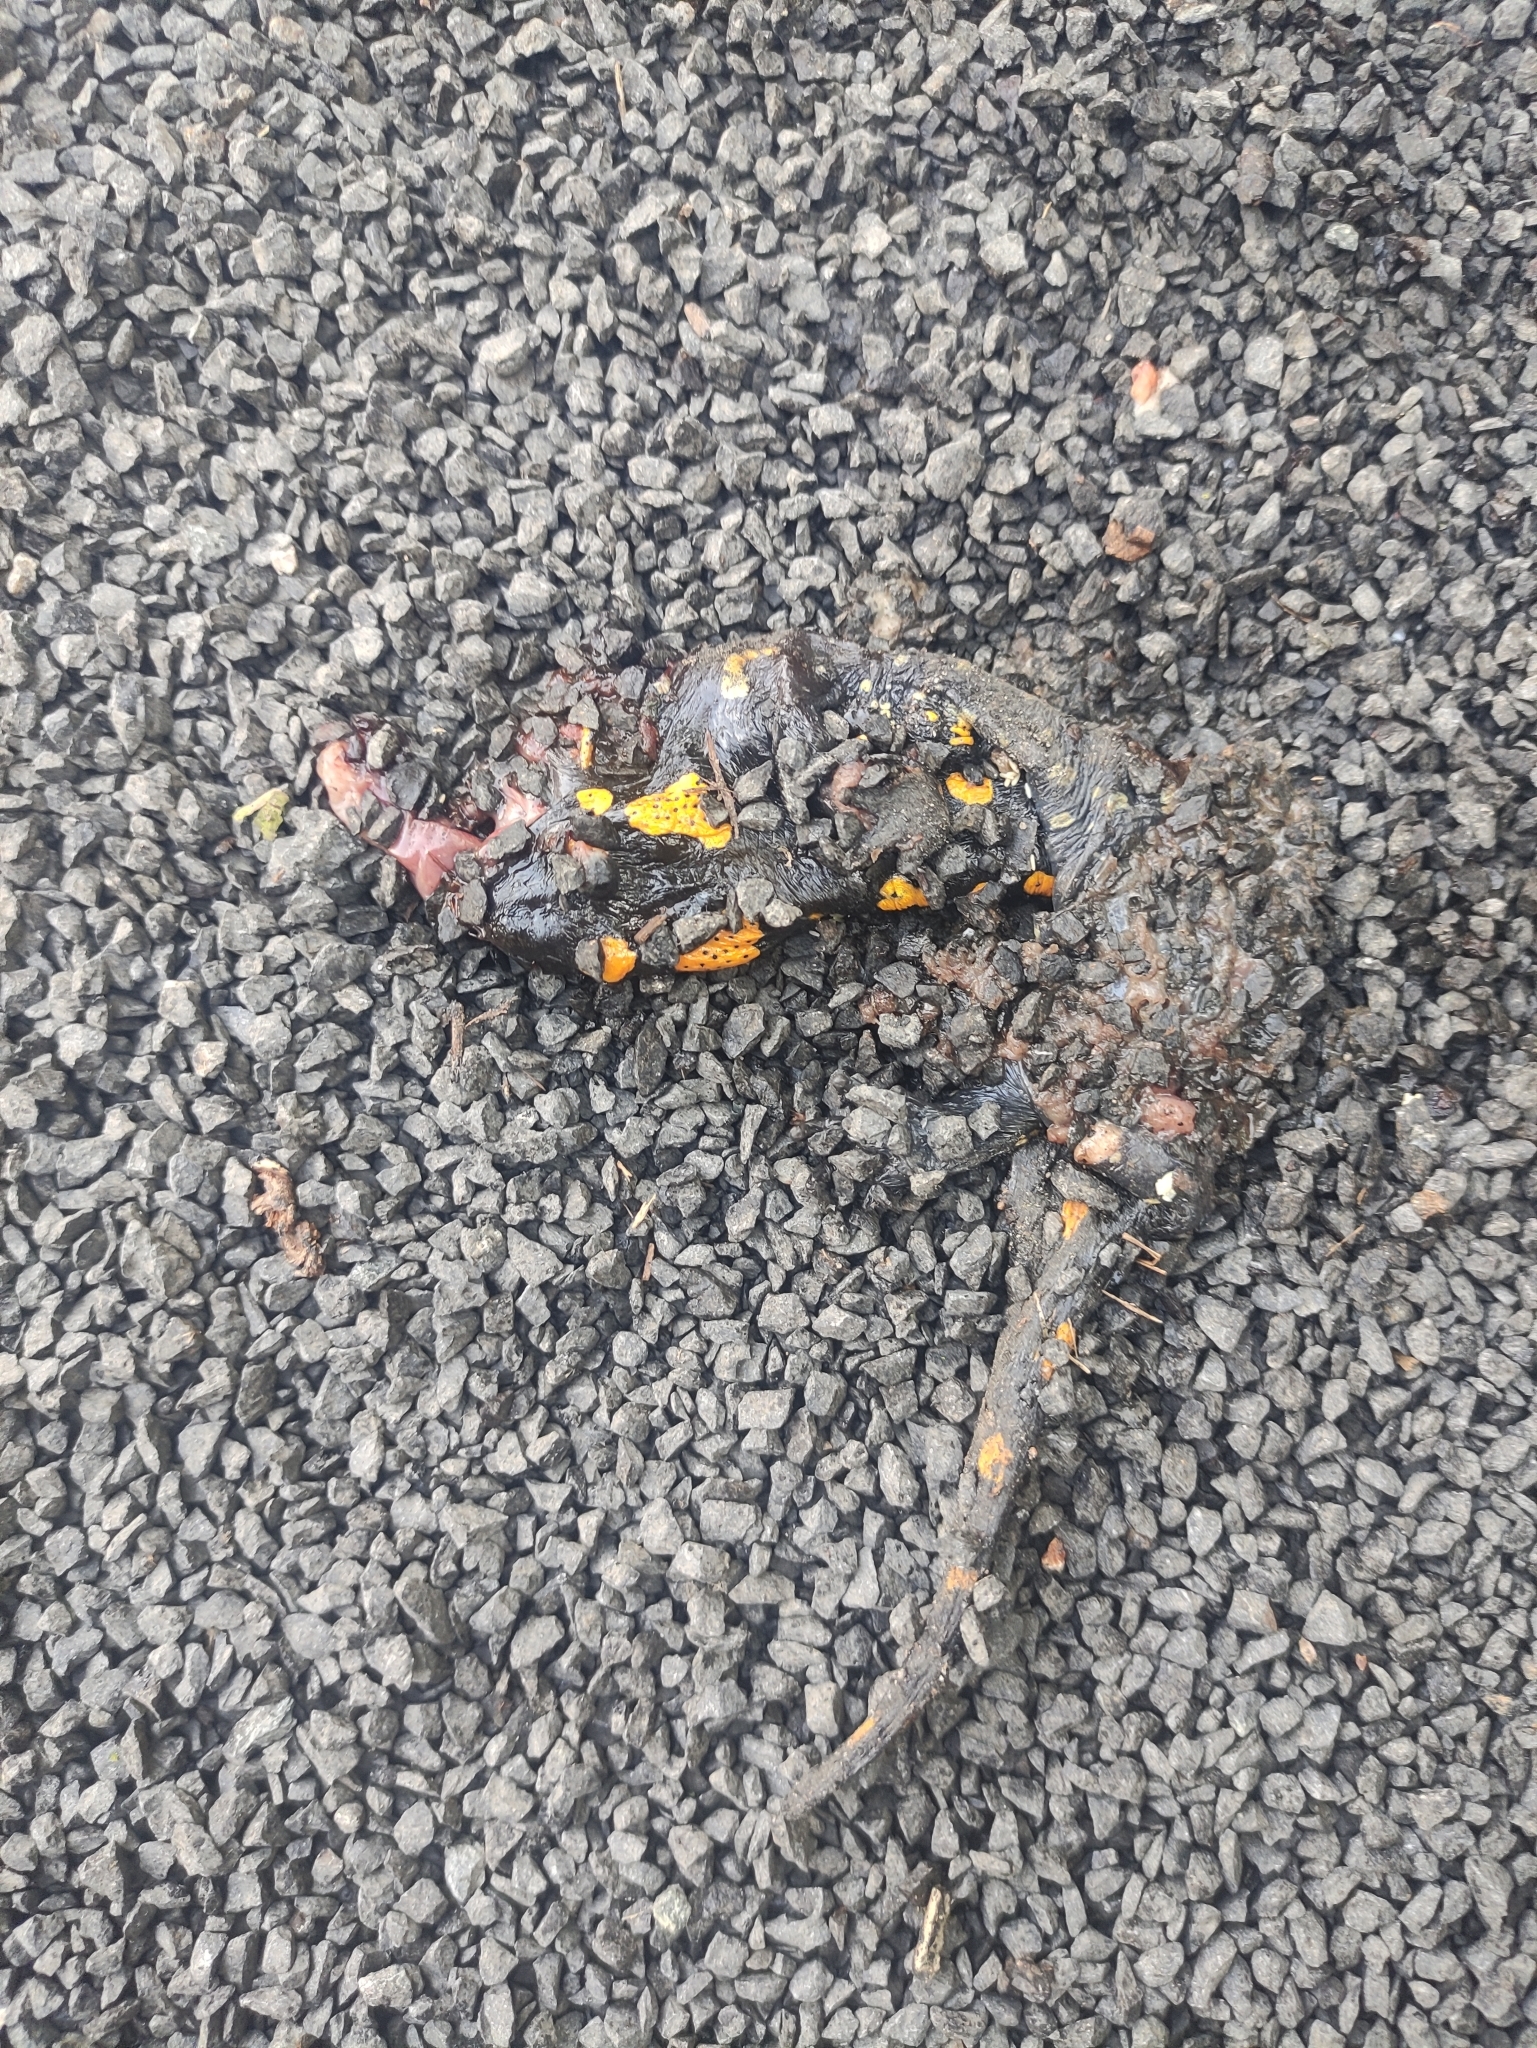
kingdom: Animalia
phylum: Chordata
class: Amphibia
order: Caudata
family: Salamandridae
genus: Salamandra
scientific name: Salamandra salamandra
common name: Fire salamander
